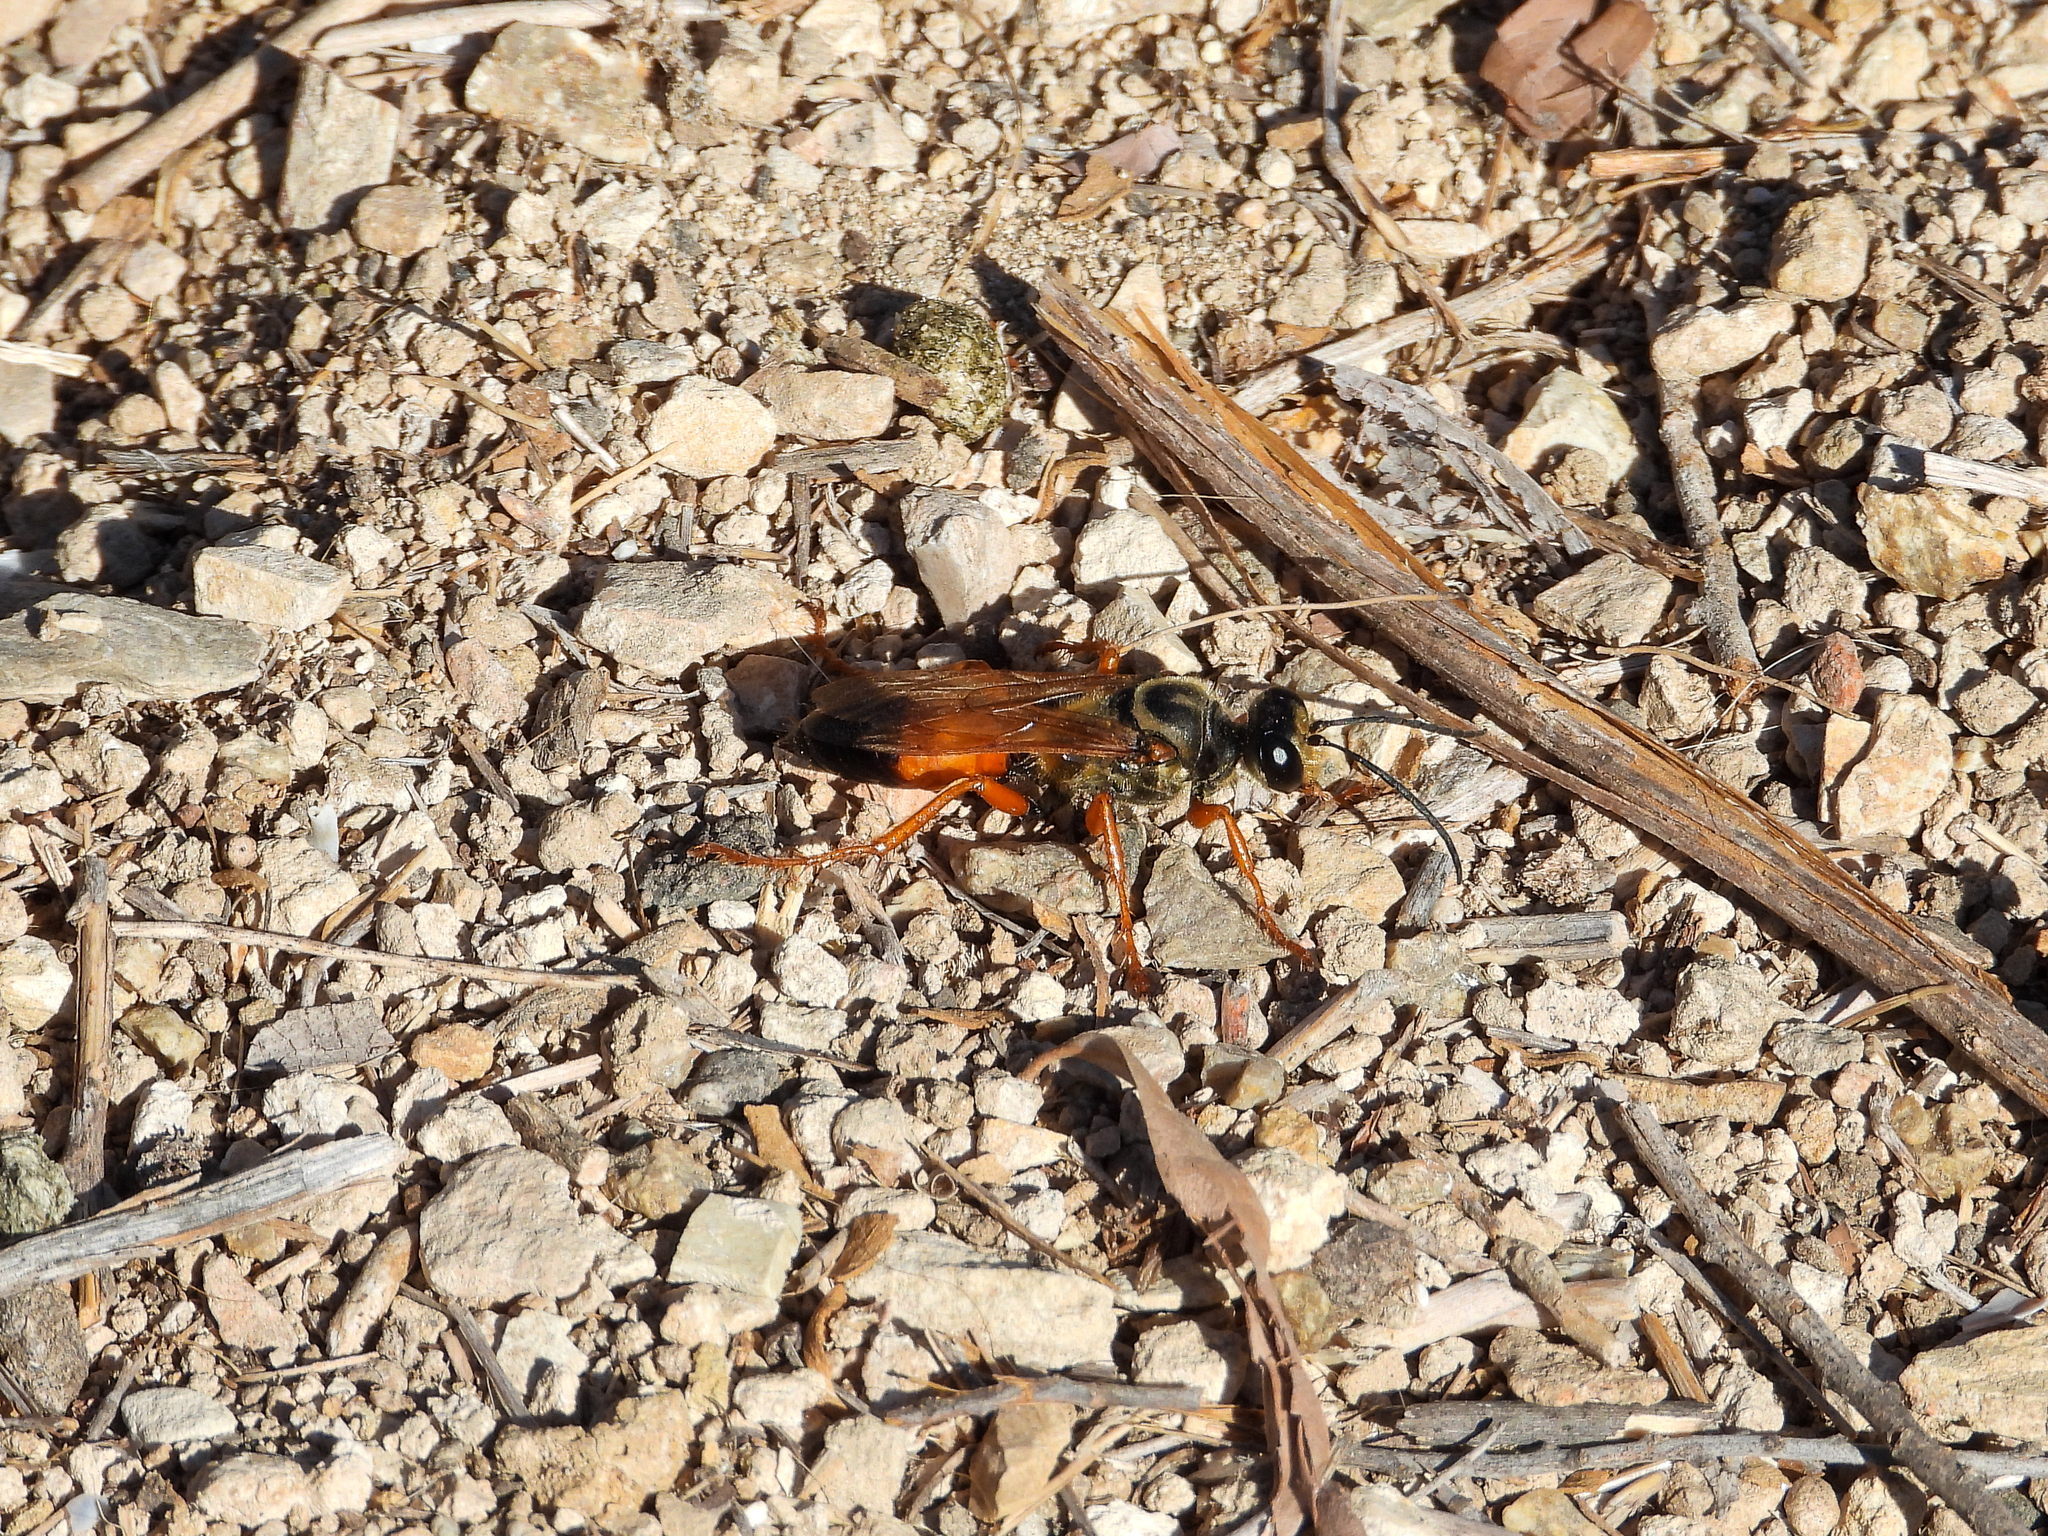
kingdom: Animalia
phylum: Arthropoda
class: Insecta
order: Hymenoptera
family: Sphecidae
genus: Sphex
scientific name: Sphex ichneumoneus
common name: Great golden digger wasp
